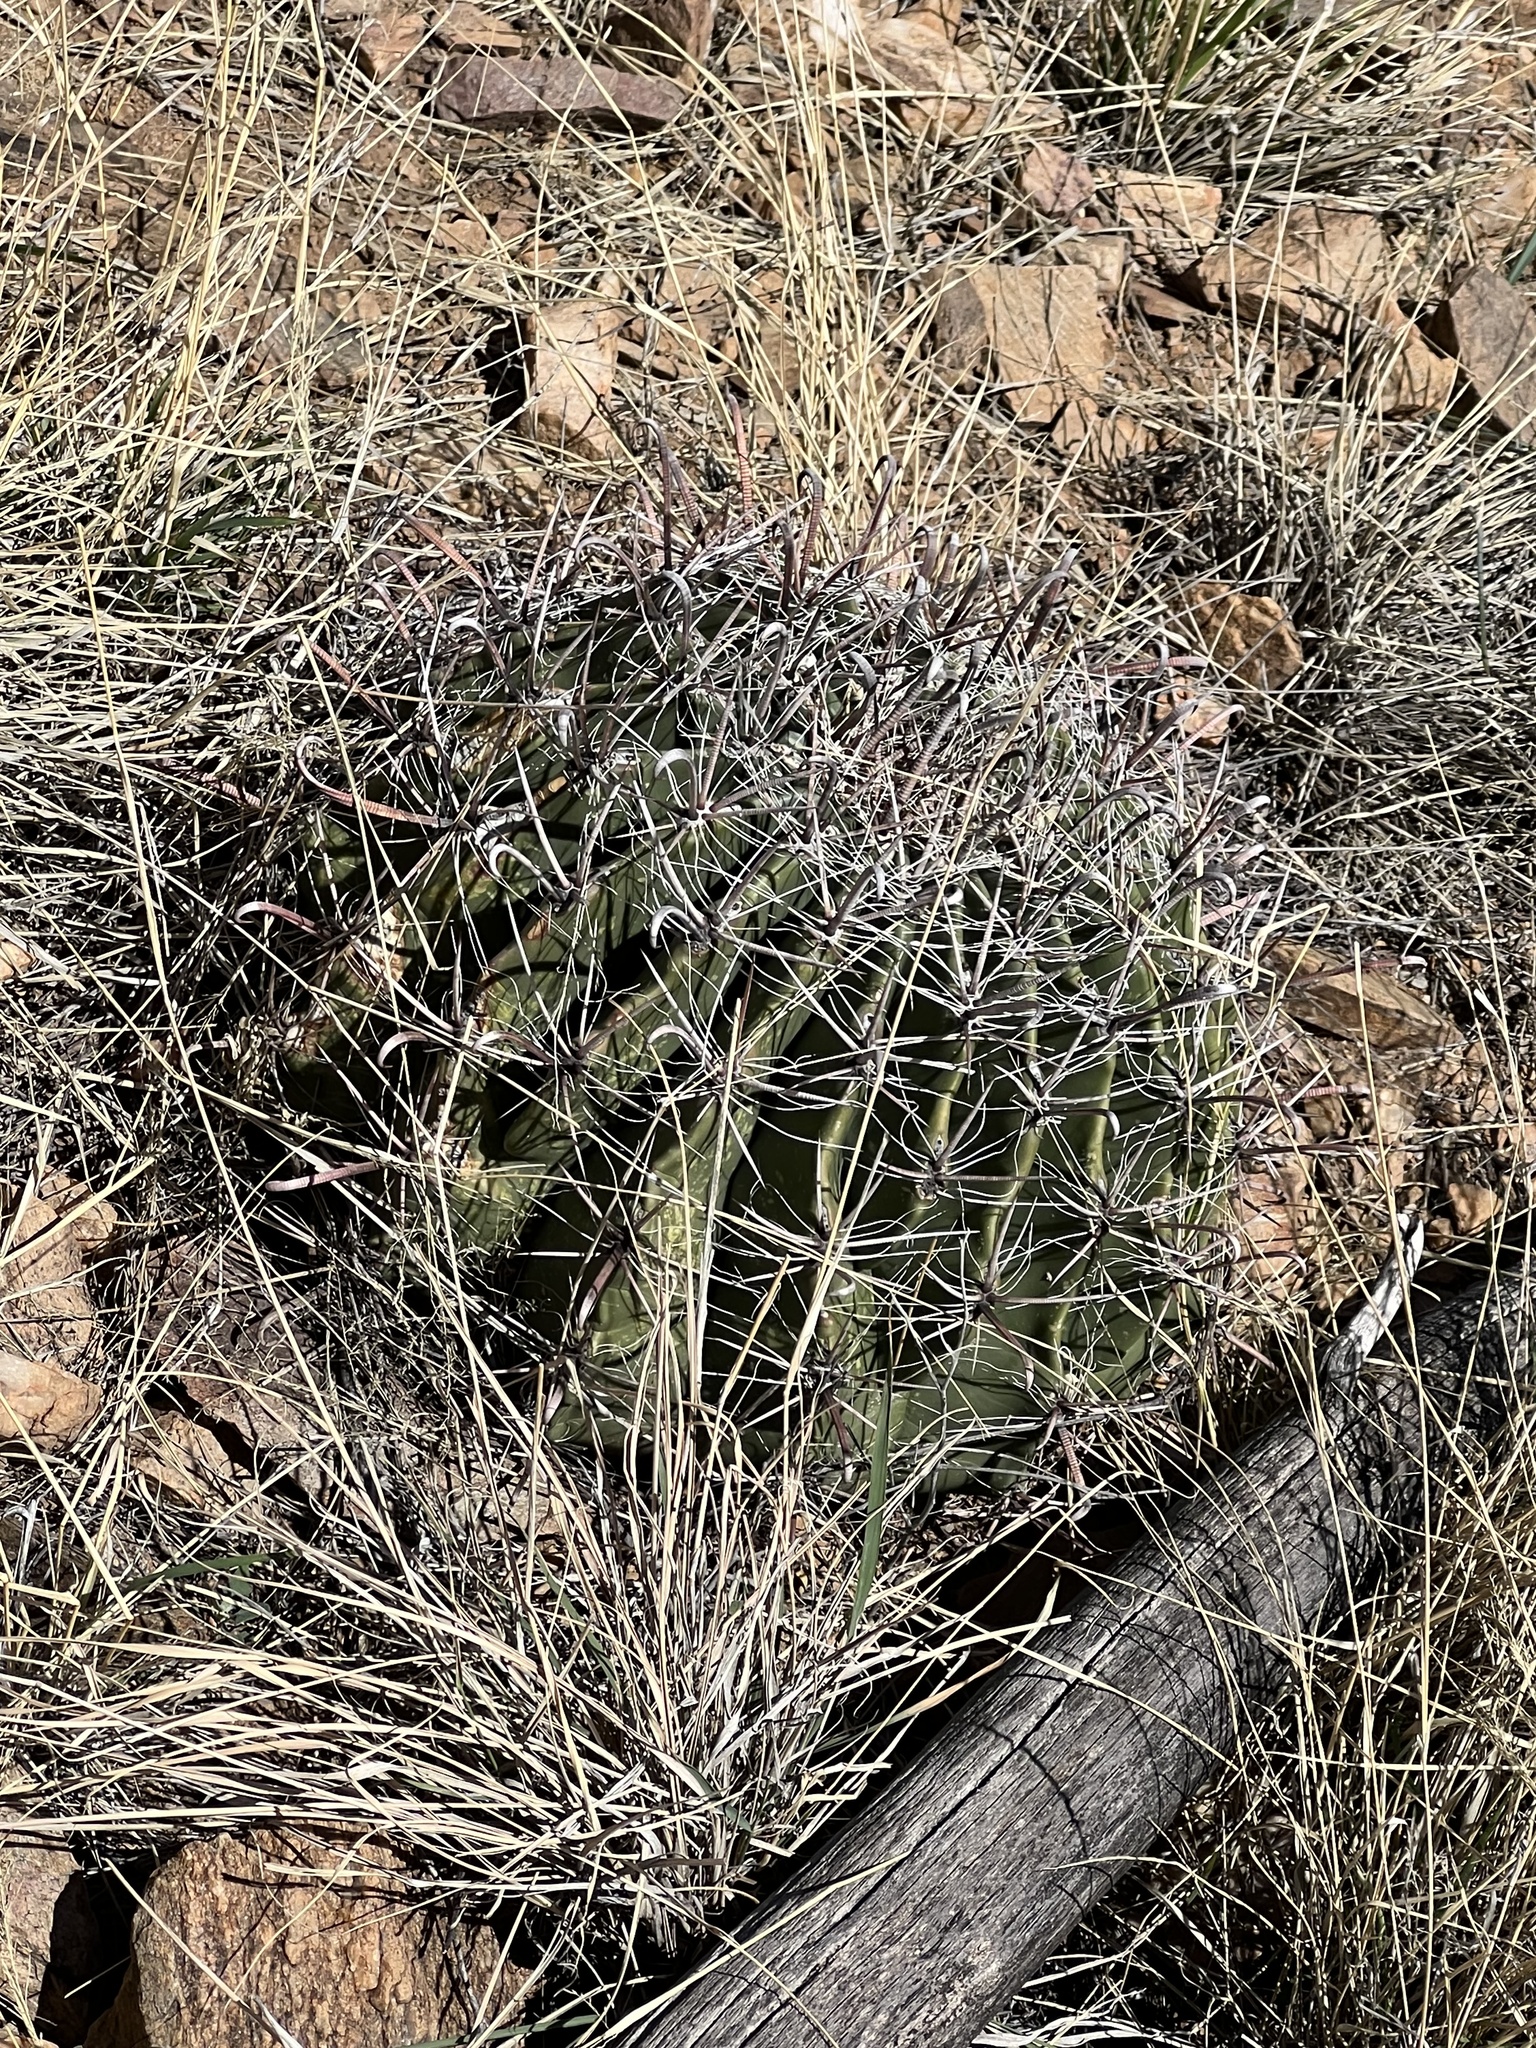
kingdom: Plantae
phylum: Tracheophyta
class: Magnoliopsida
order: Caryophyllales
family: Cactaceae
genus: Ferocactus
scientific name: Ferocactus wislizeni
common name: Candy barrel cactus
